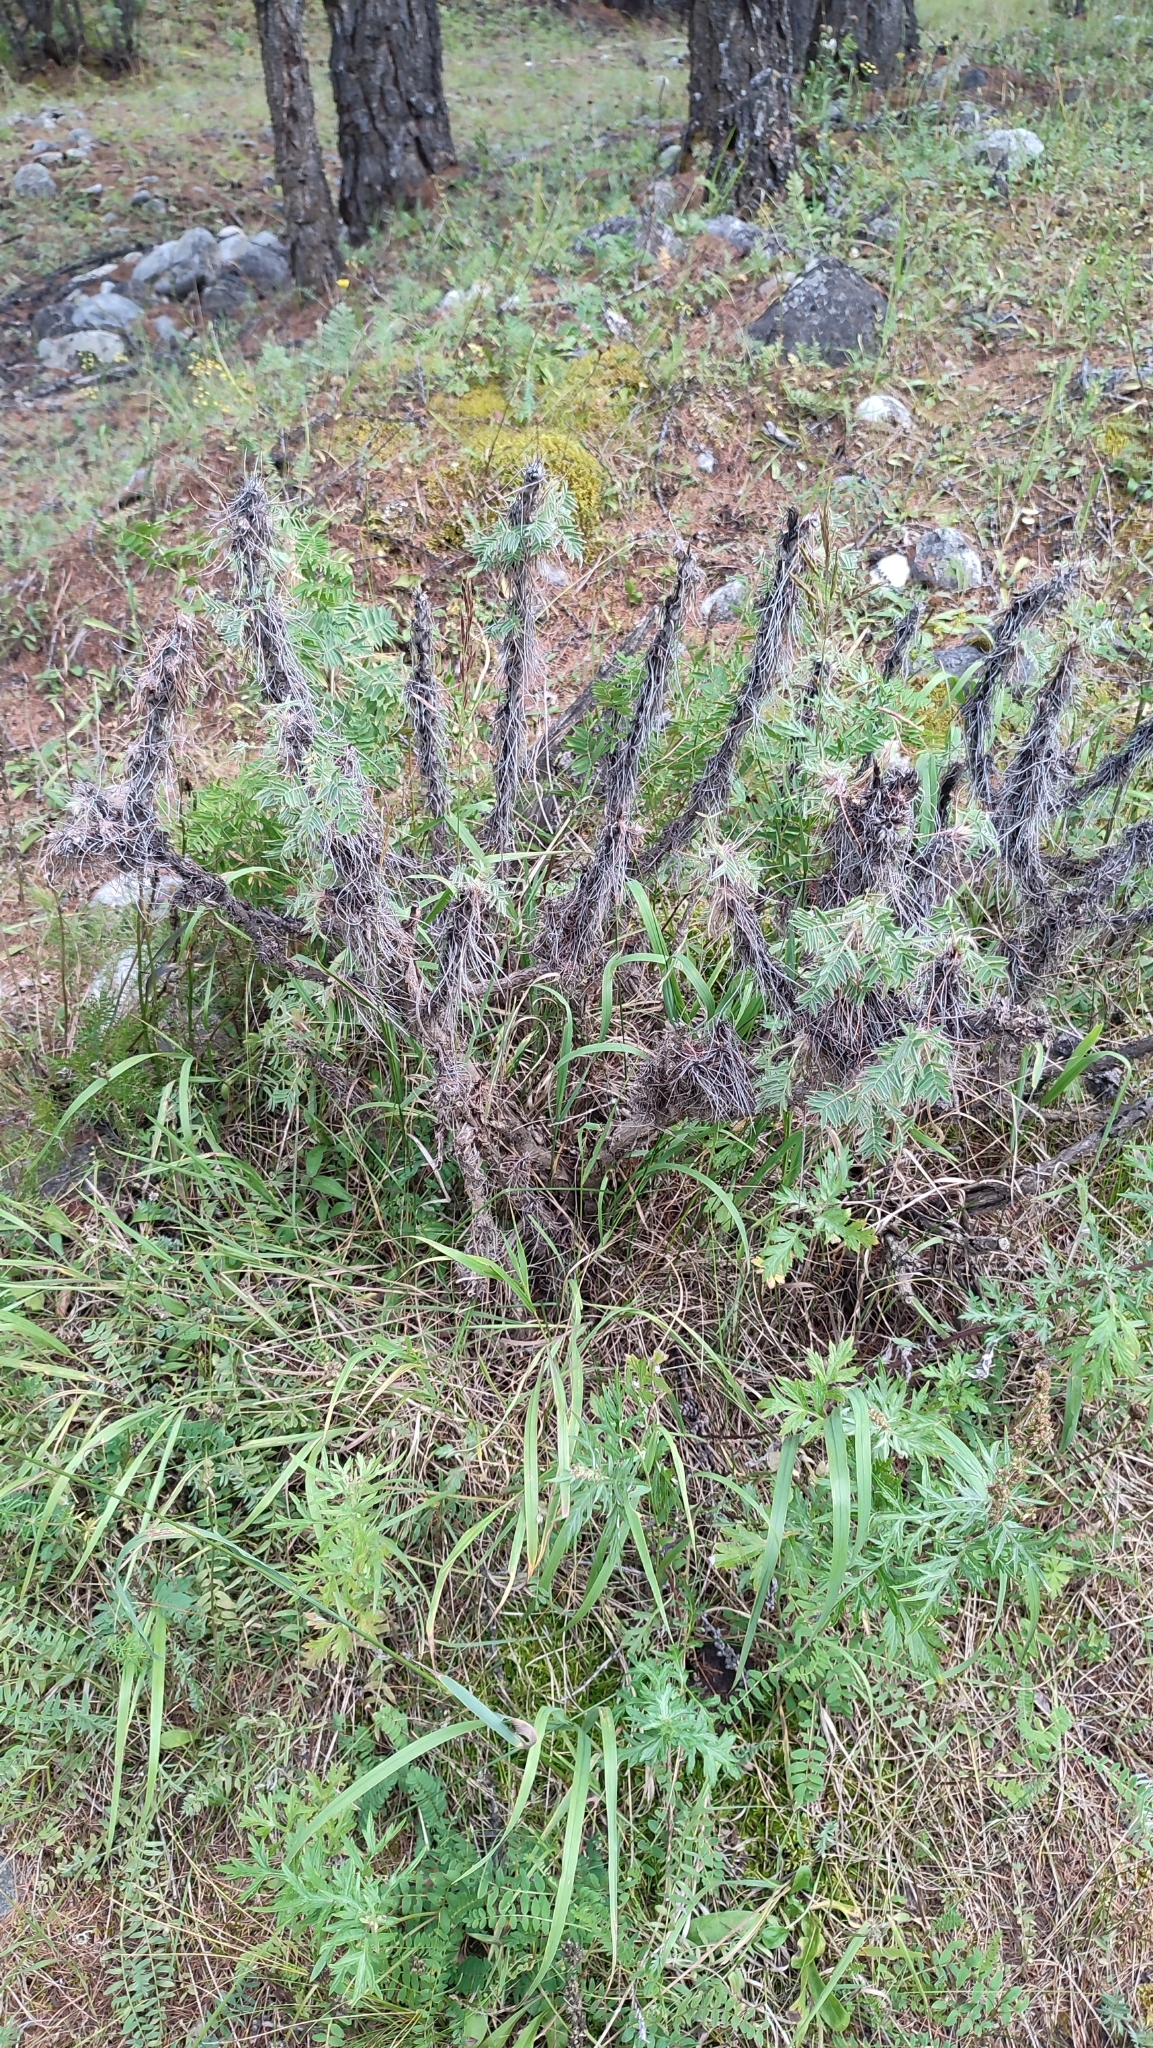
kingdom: Plantae
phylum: Tracheophyta
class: Magnoliopsida
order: Fabales
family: Fabaceae
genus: Caragana
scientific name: Caragana jubata
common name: Shag-spine peashrub
